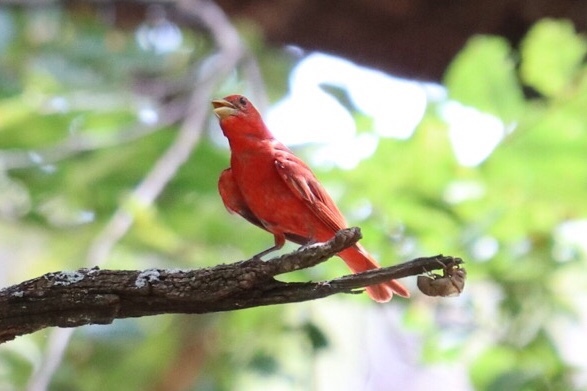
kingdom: Animalia
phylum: Chordata
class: Aves
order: Passeriformes
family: Cardinalidae
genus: Piranga
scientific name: Piranga rubra
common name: Summer tanager
